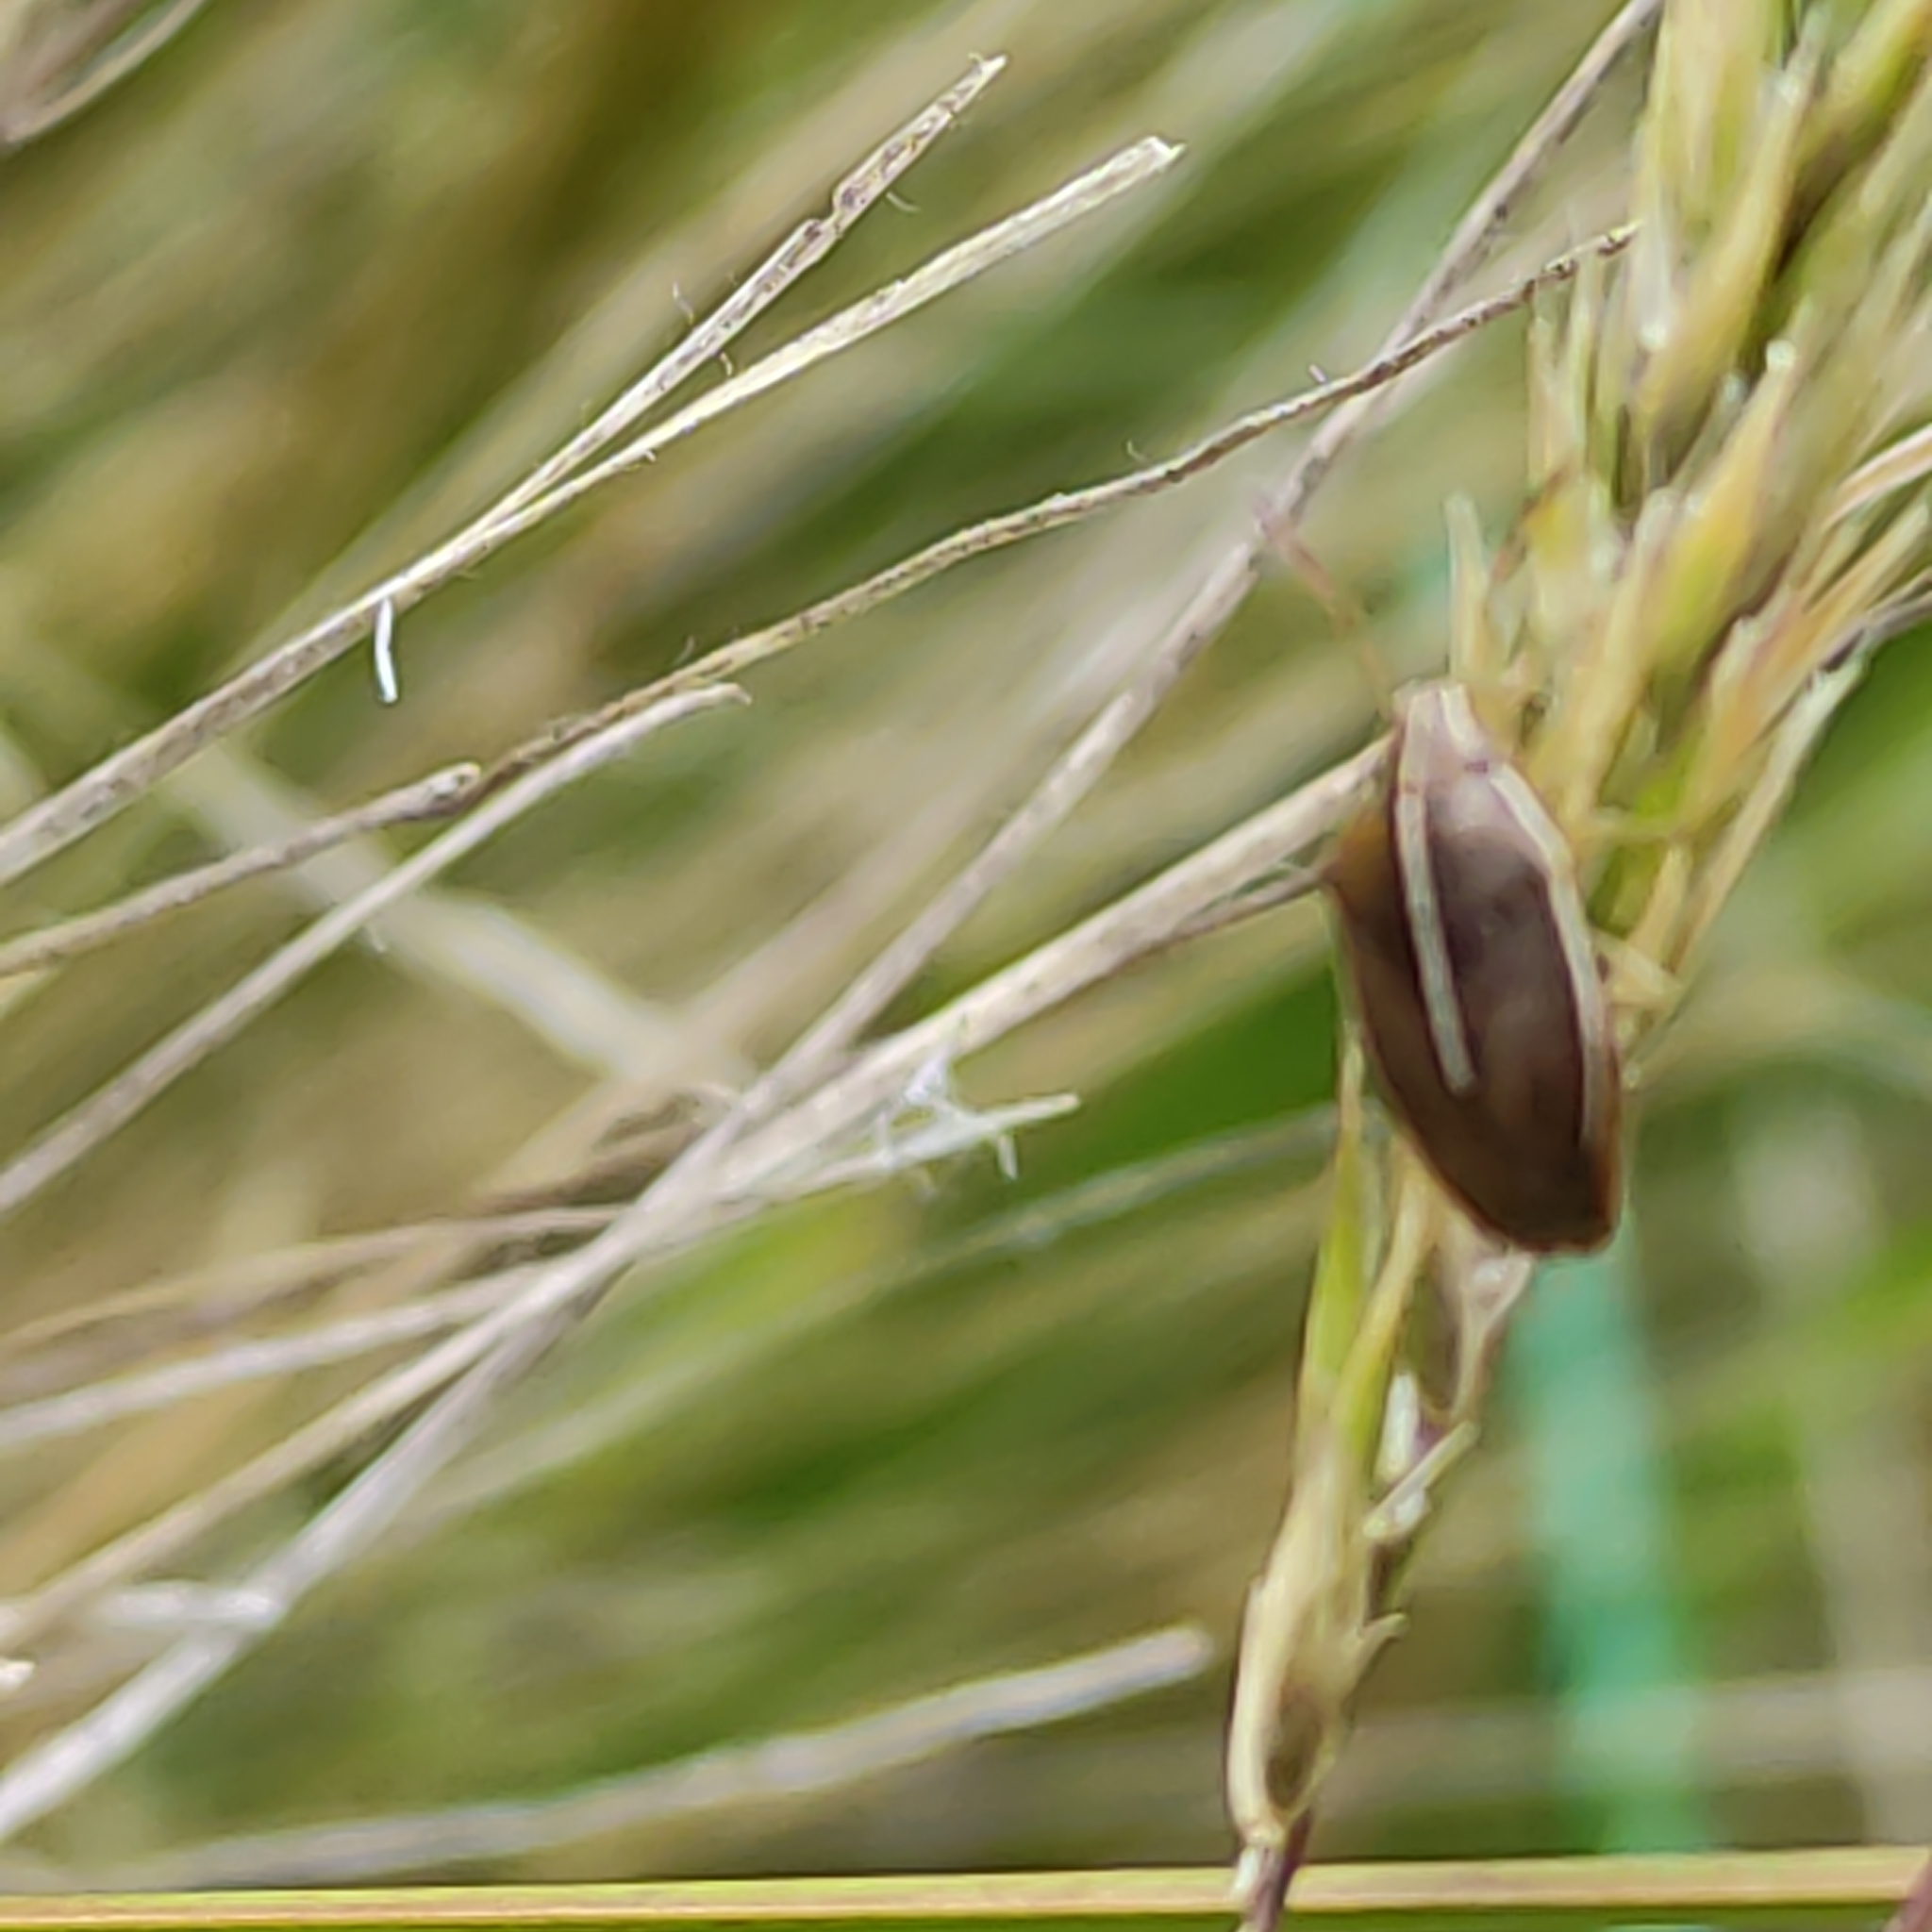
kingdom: Animalia
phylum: Arthropoda
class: Insecta
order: Hemiptera
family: Acanthosomatidae
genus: Rhopalimorpha
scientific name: Rhopalimorpha lineolaris
